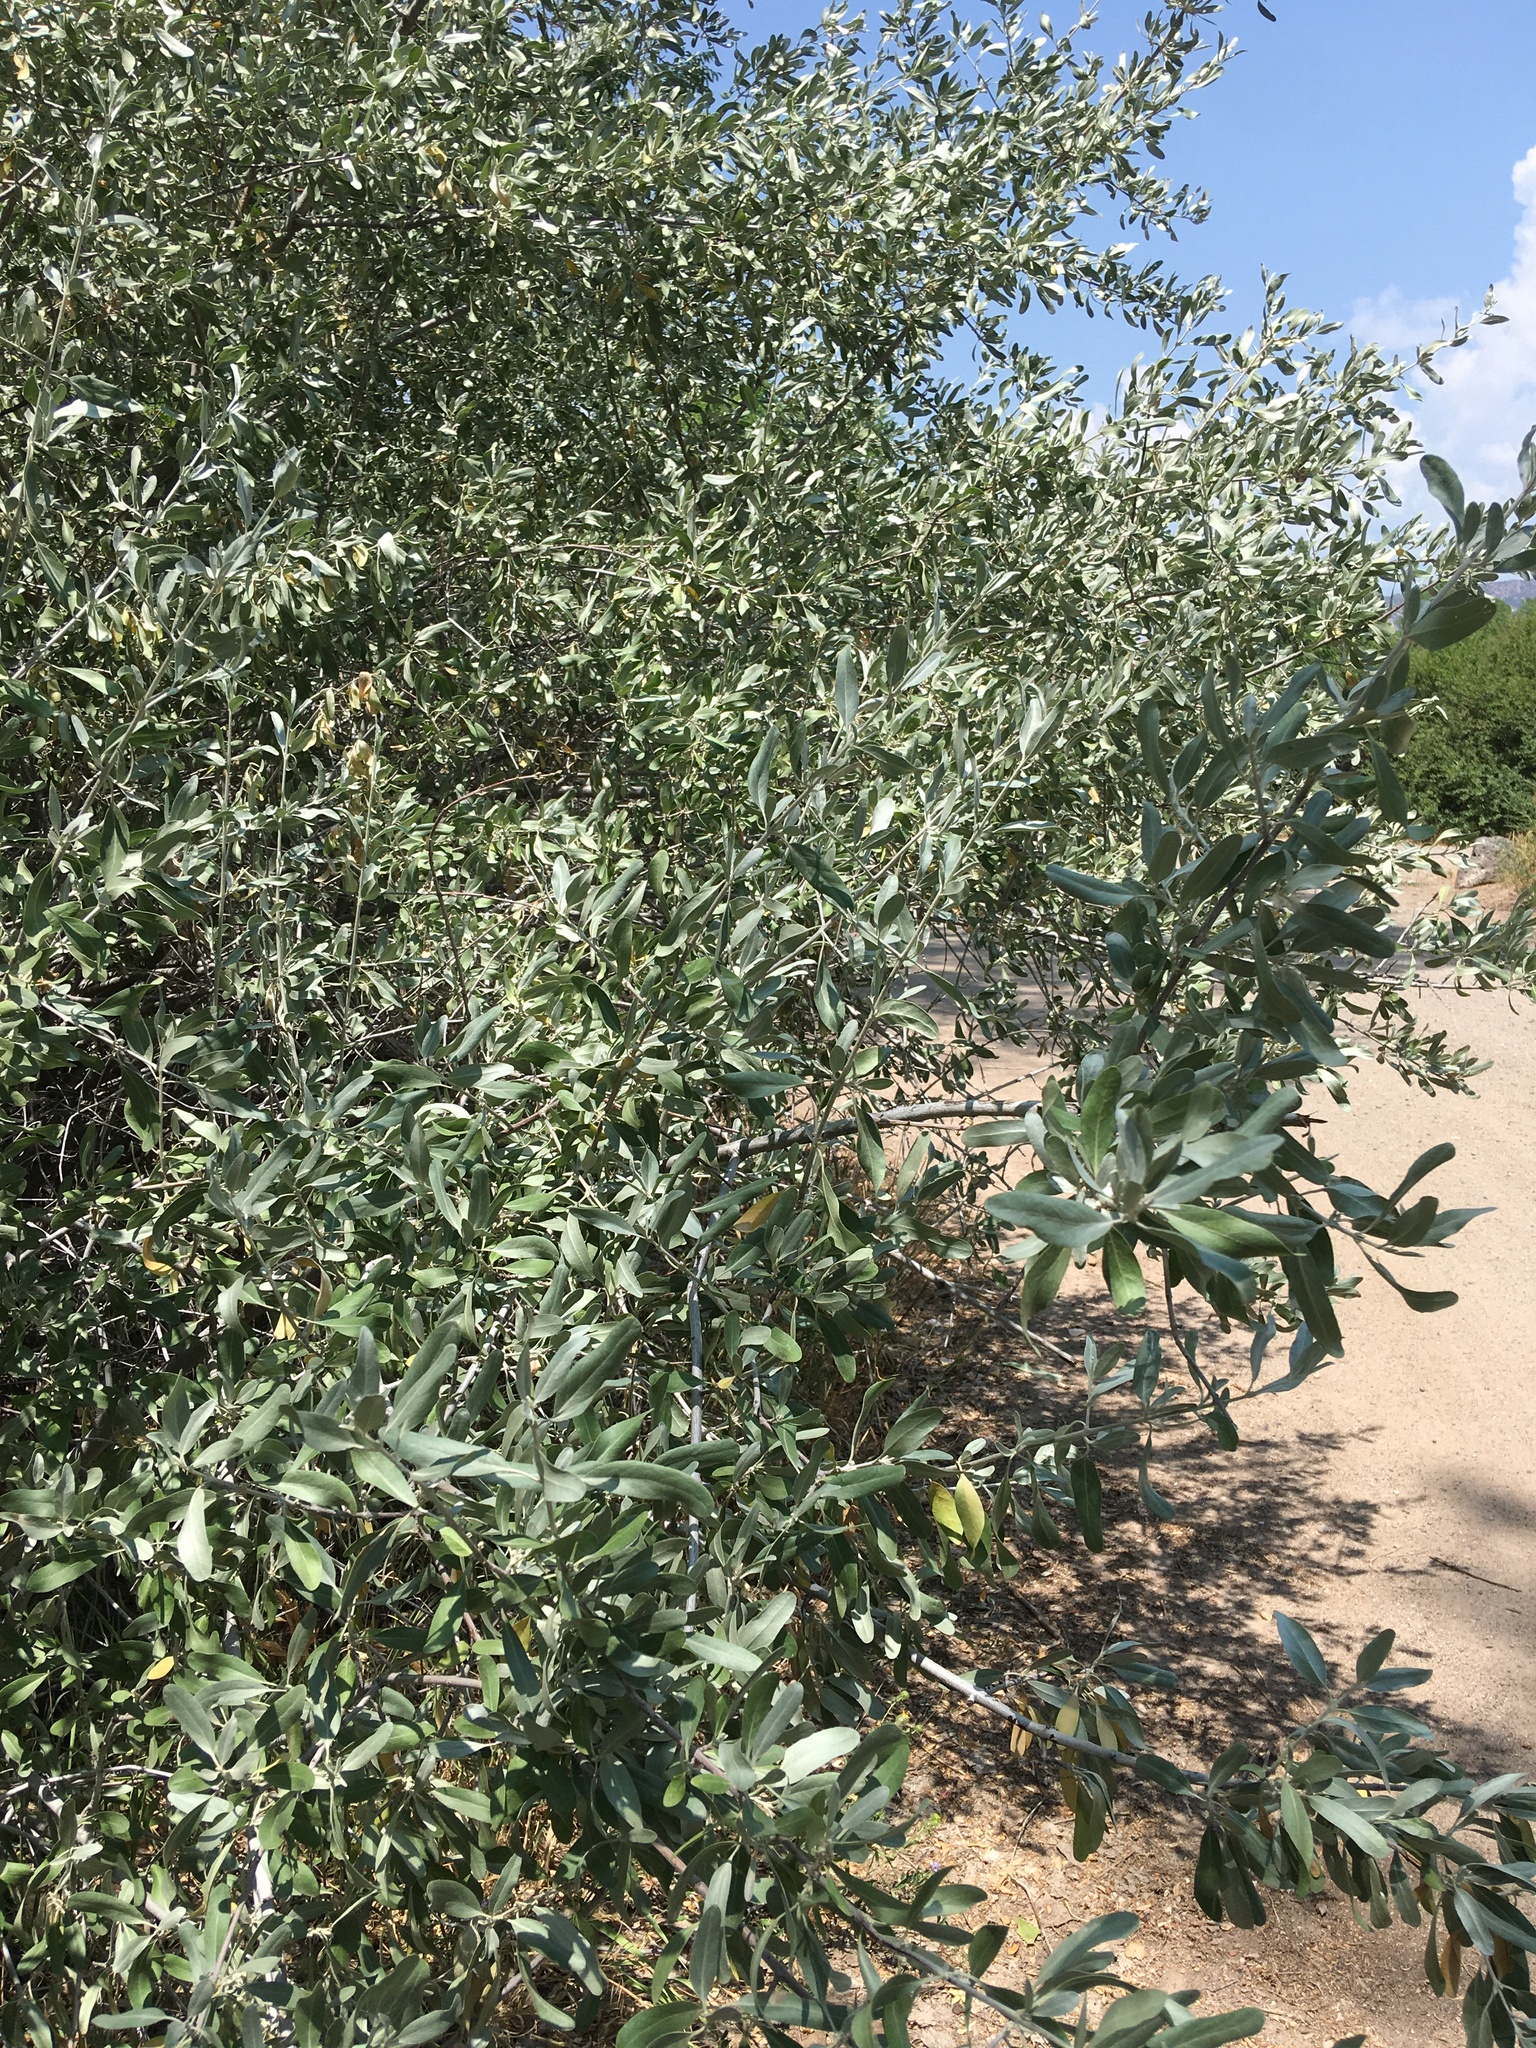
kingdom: Plantae
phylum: Tracheophyta
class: Magnoliopsida
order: Rosales
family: Elaeagnaceae
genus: Elaeagnus
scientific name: Elaeagnus angustifolia
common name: Russian olive
